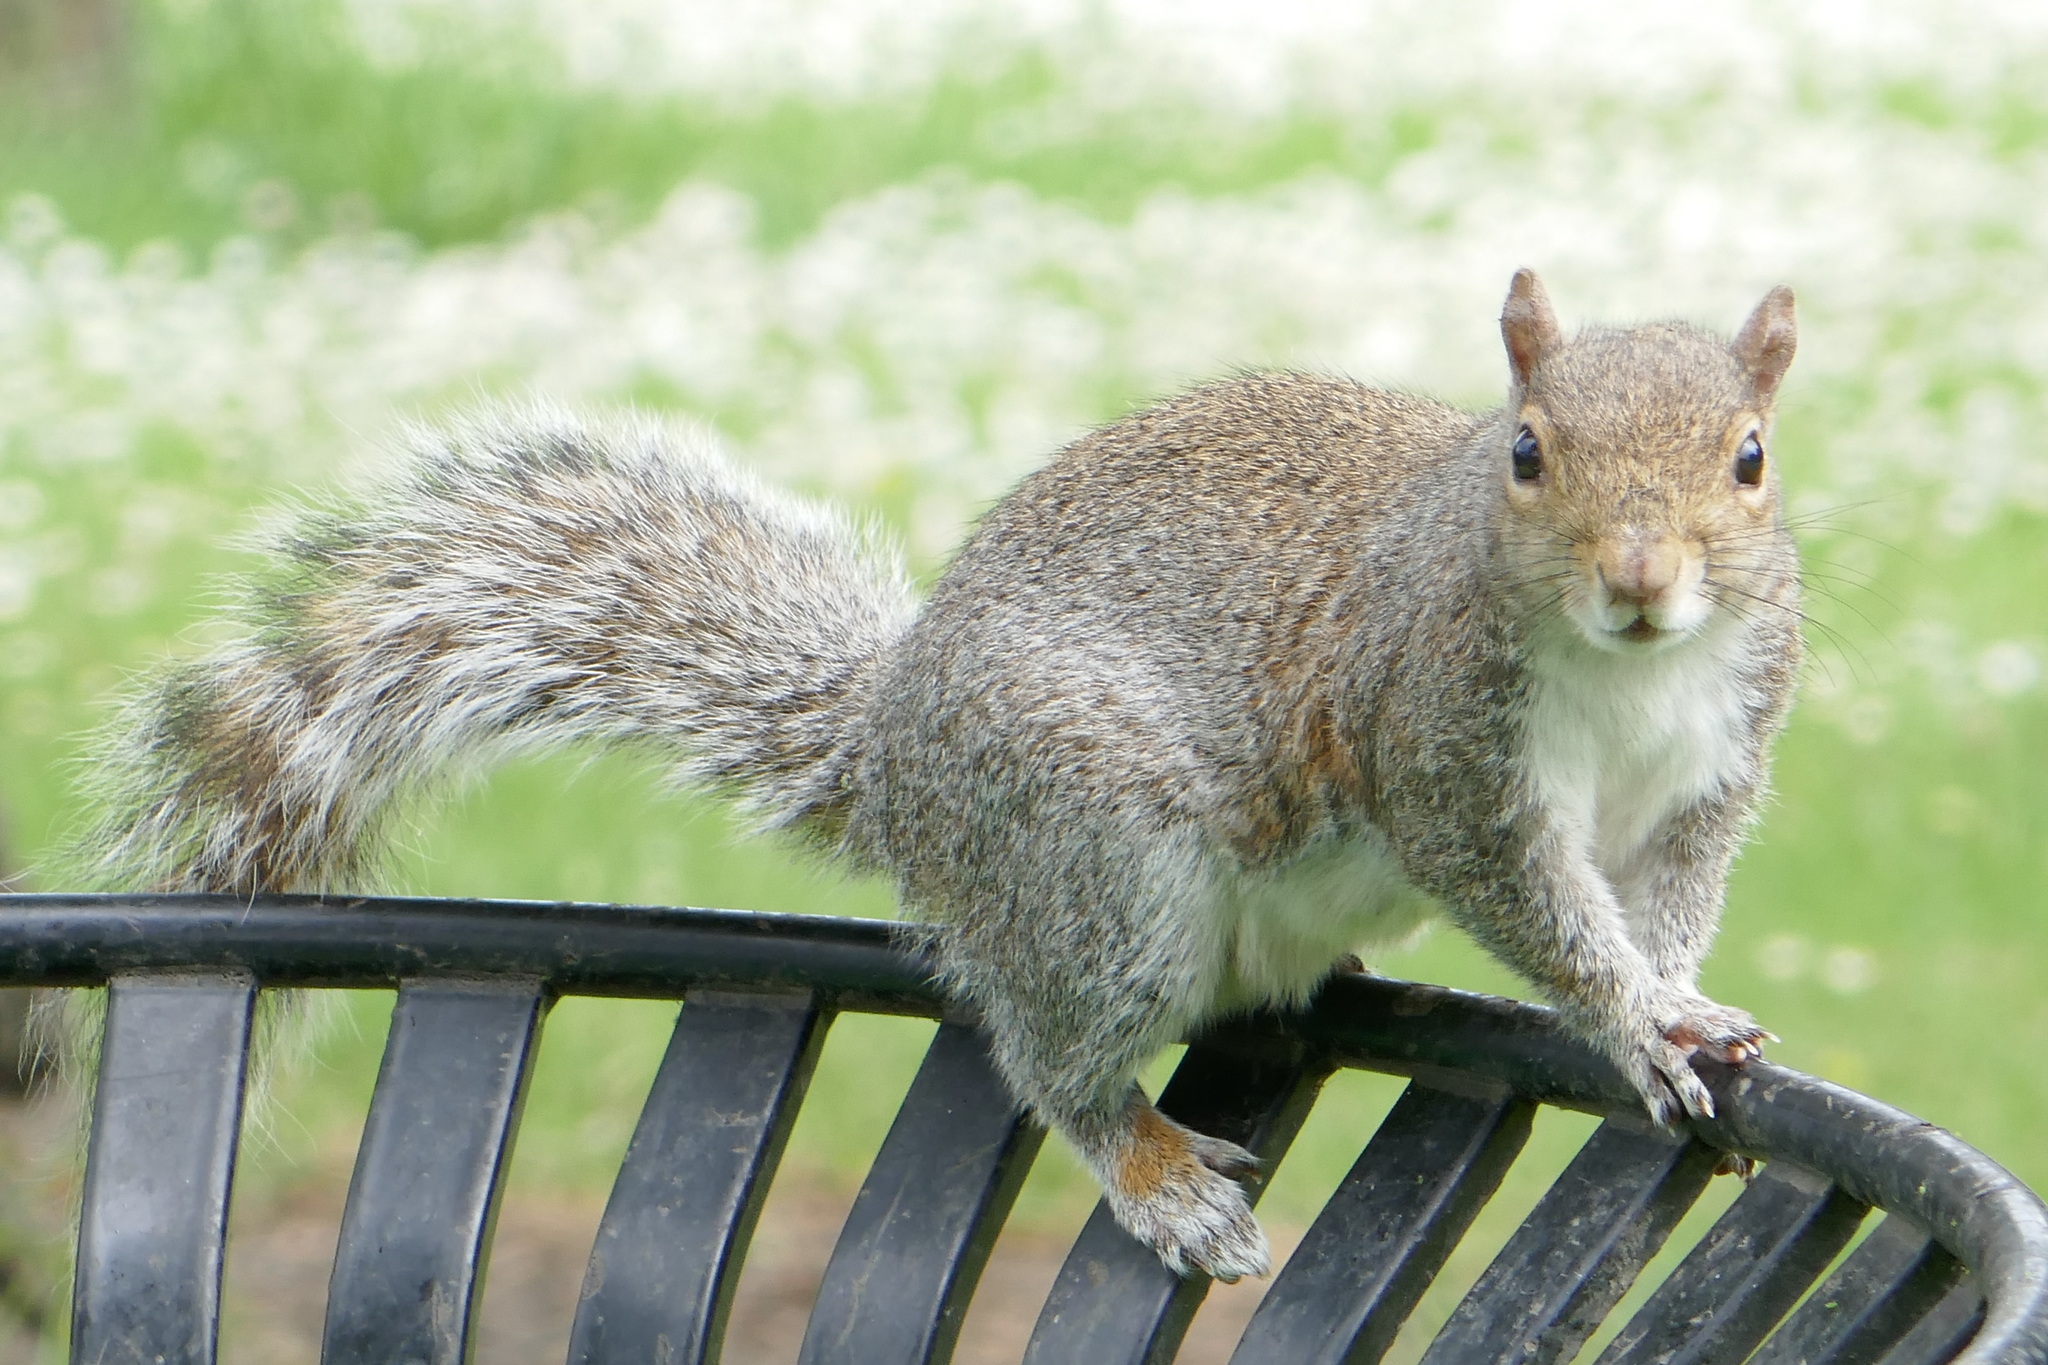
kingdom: Animalia
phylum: Chordata
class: Mammalia
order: Rodentia
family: Sciuridae
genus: Sciurus
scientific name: Sciurus carolinensis
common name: Eastern gray squirrel
